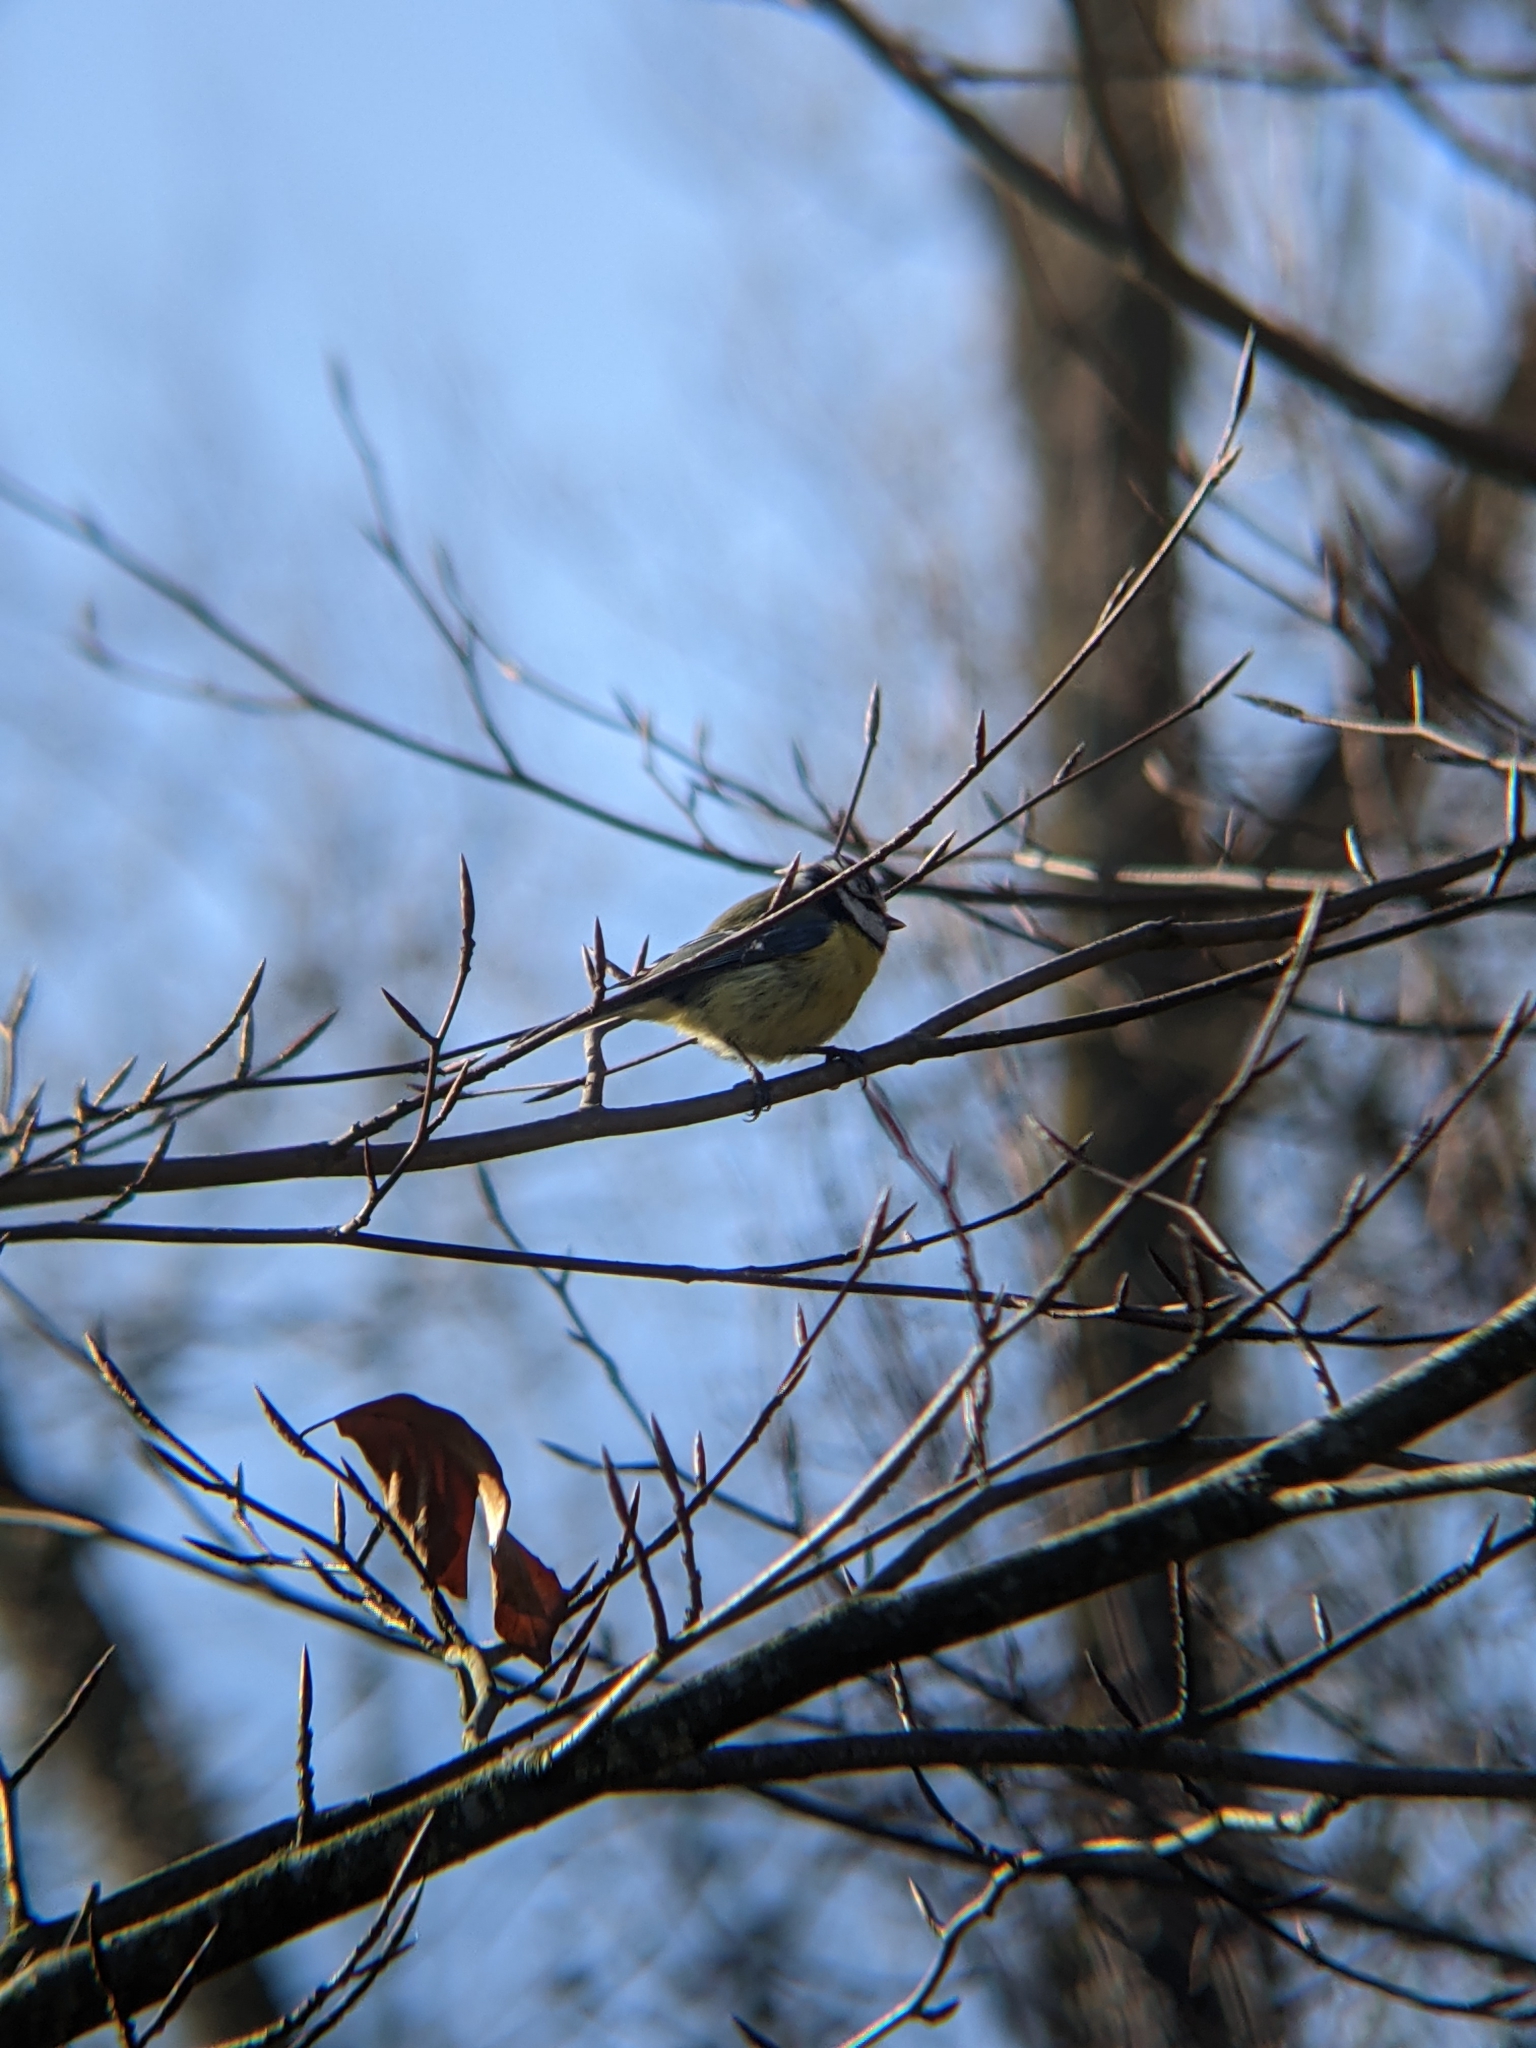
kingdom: Animalia
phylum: Chordata
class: Aves
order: Passeriformes
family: Paridae
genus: Cyanistes
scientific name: Cyanistes caeruleus
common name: Eurasian blue tit
